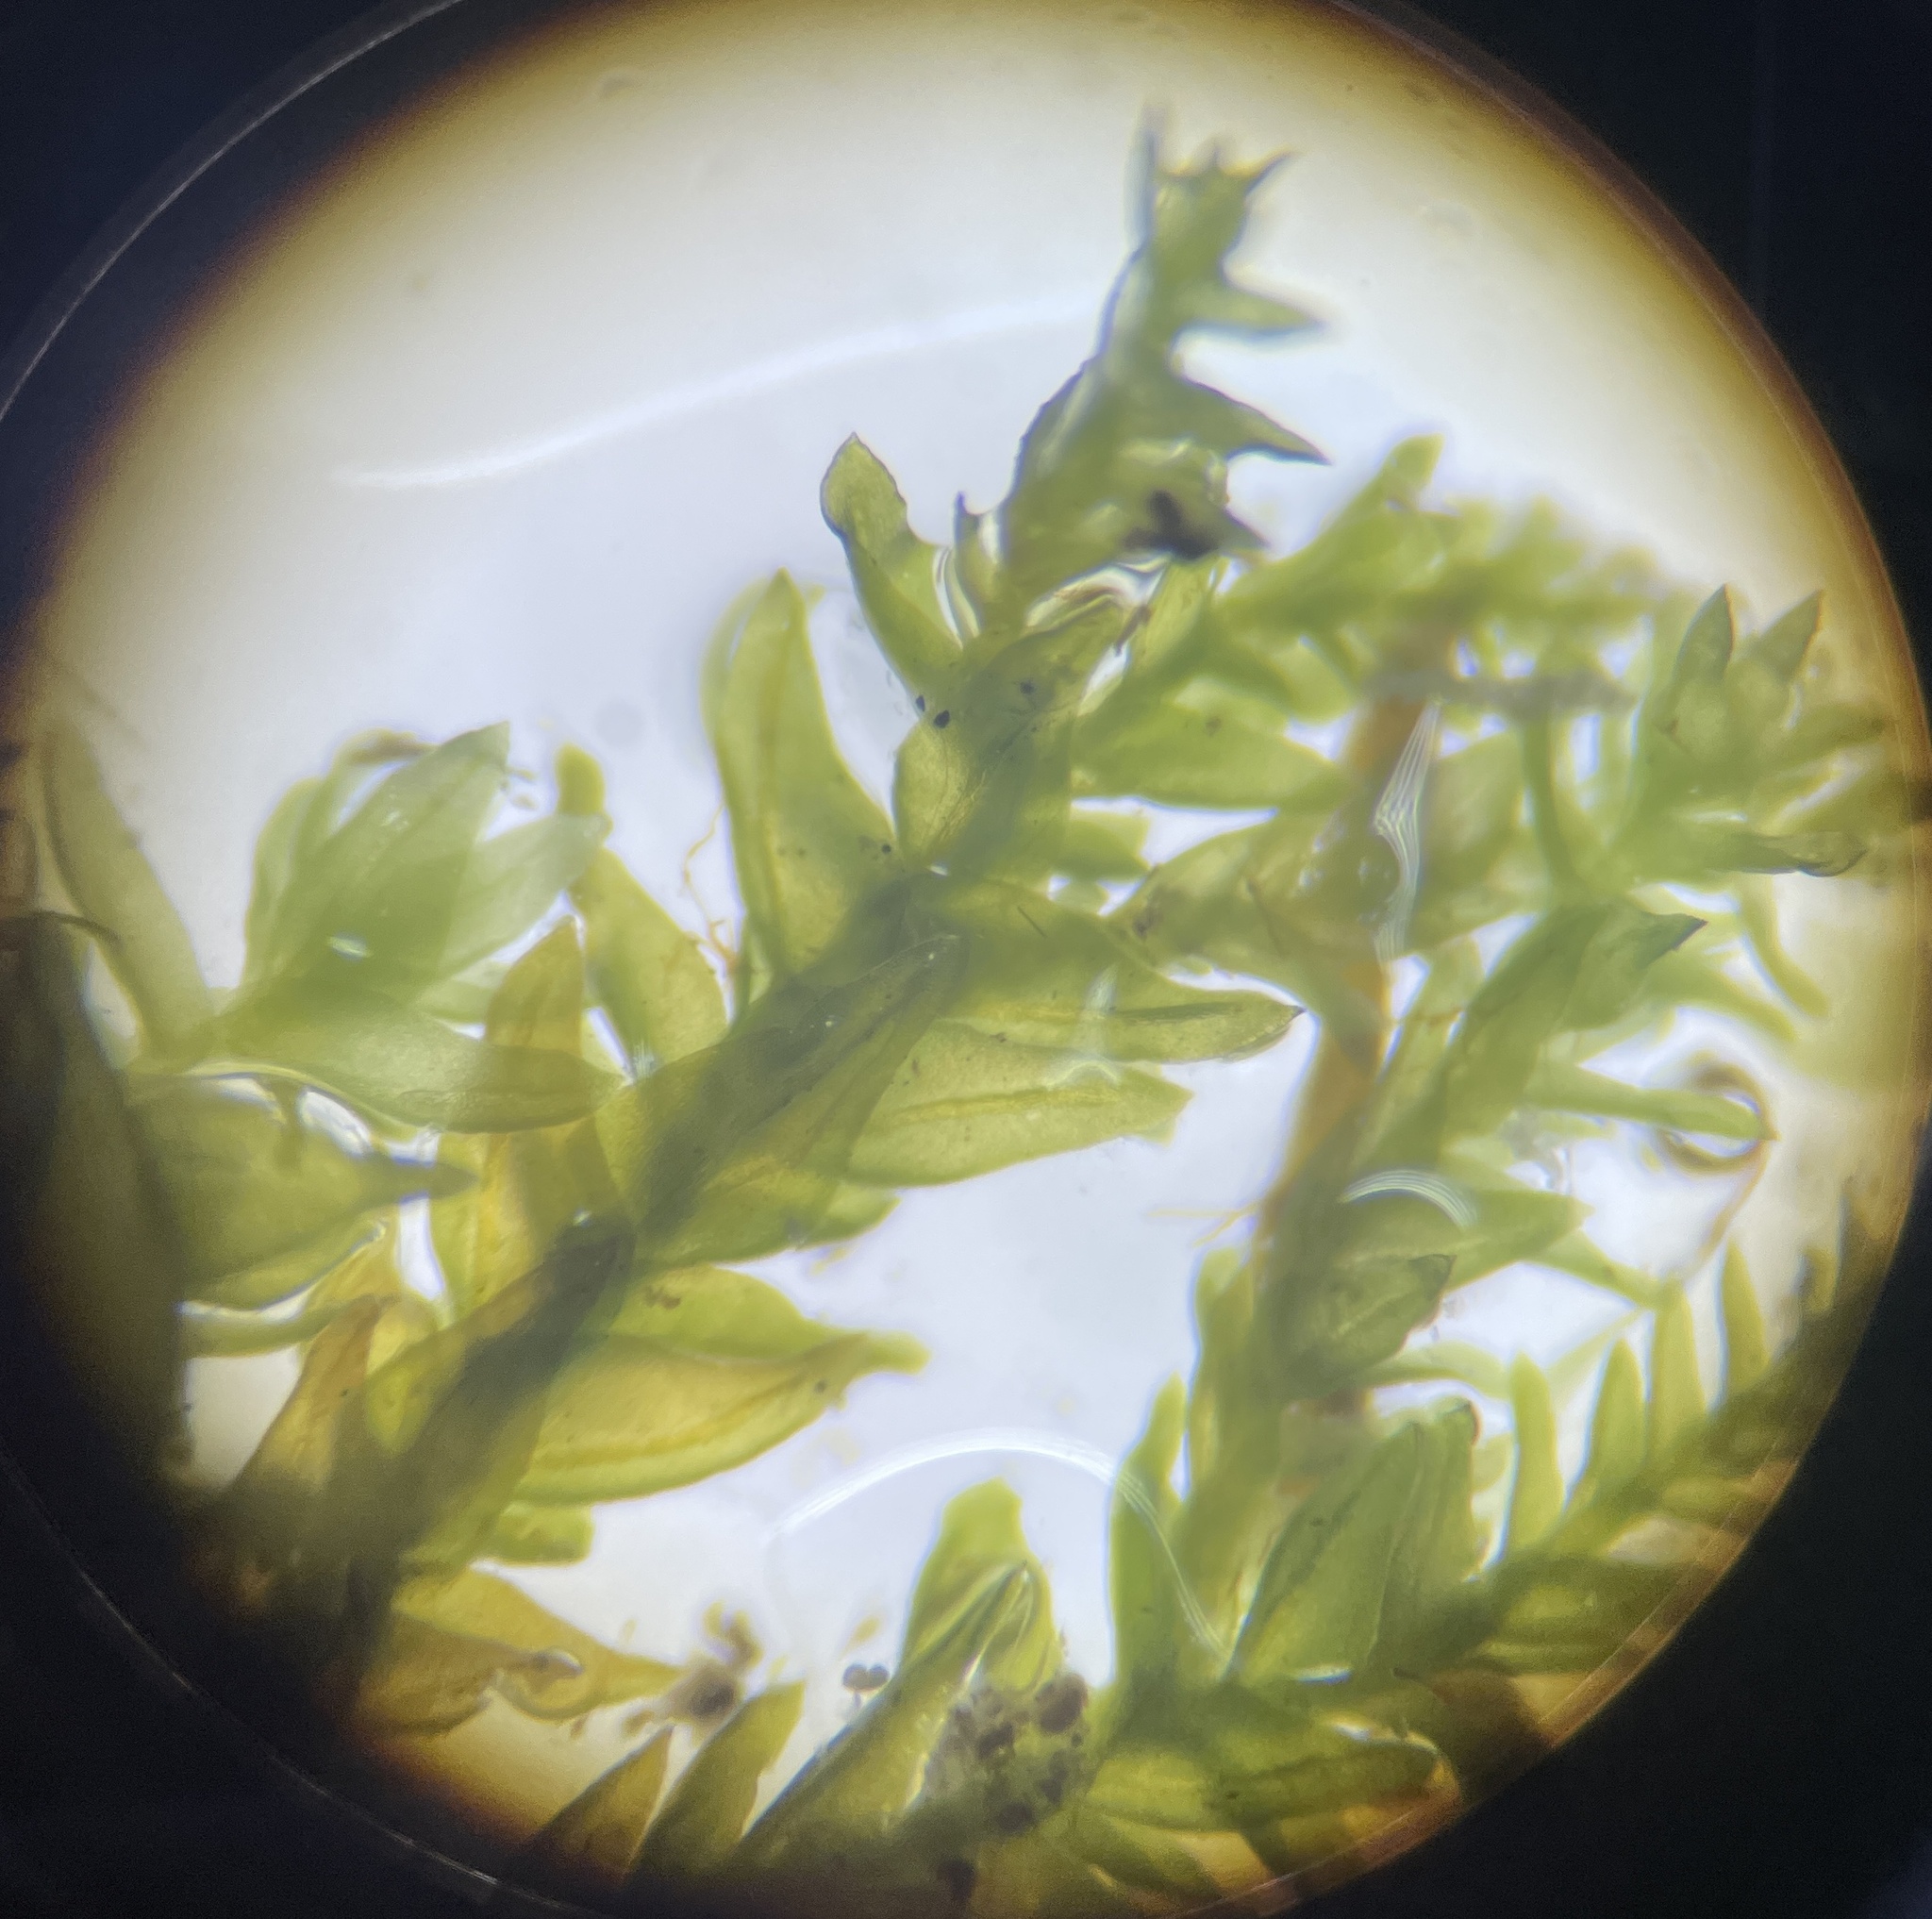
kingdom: Plantae
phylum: Bryophyta
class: Bryopsida
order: Hypnales
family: Neckeraceae
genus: Pseudanomodon
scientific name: Pseudanomodon attenuatus
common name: Tree-skirt moss
